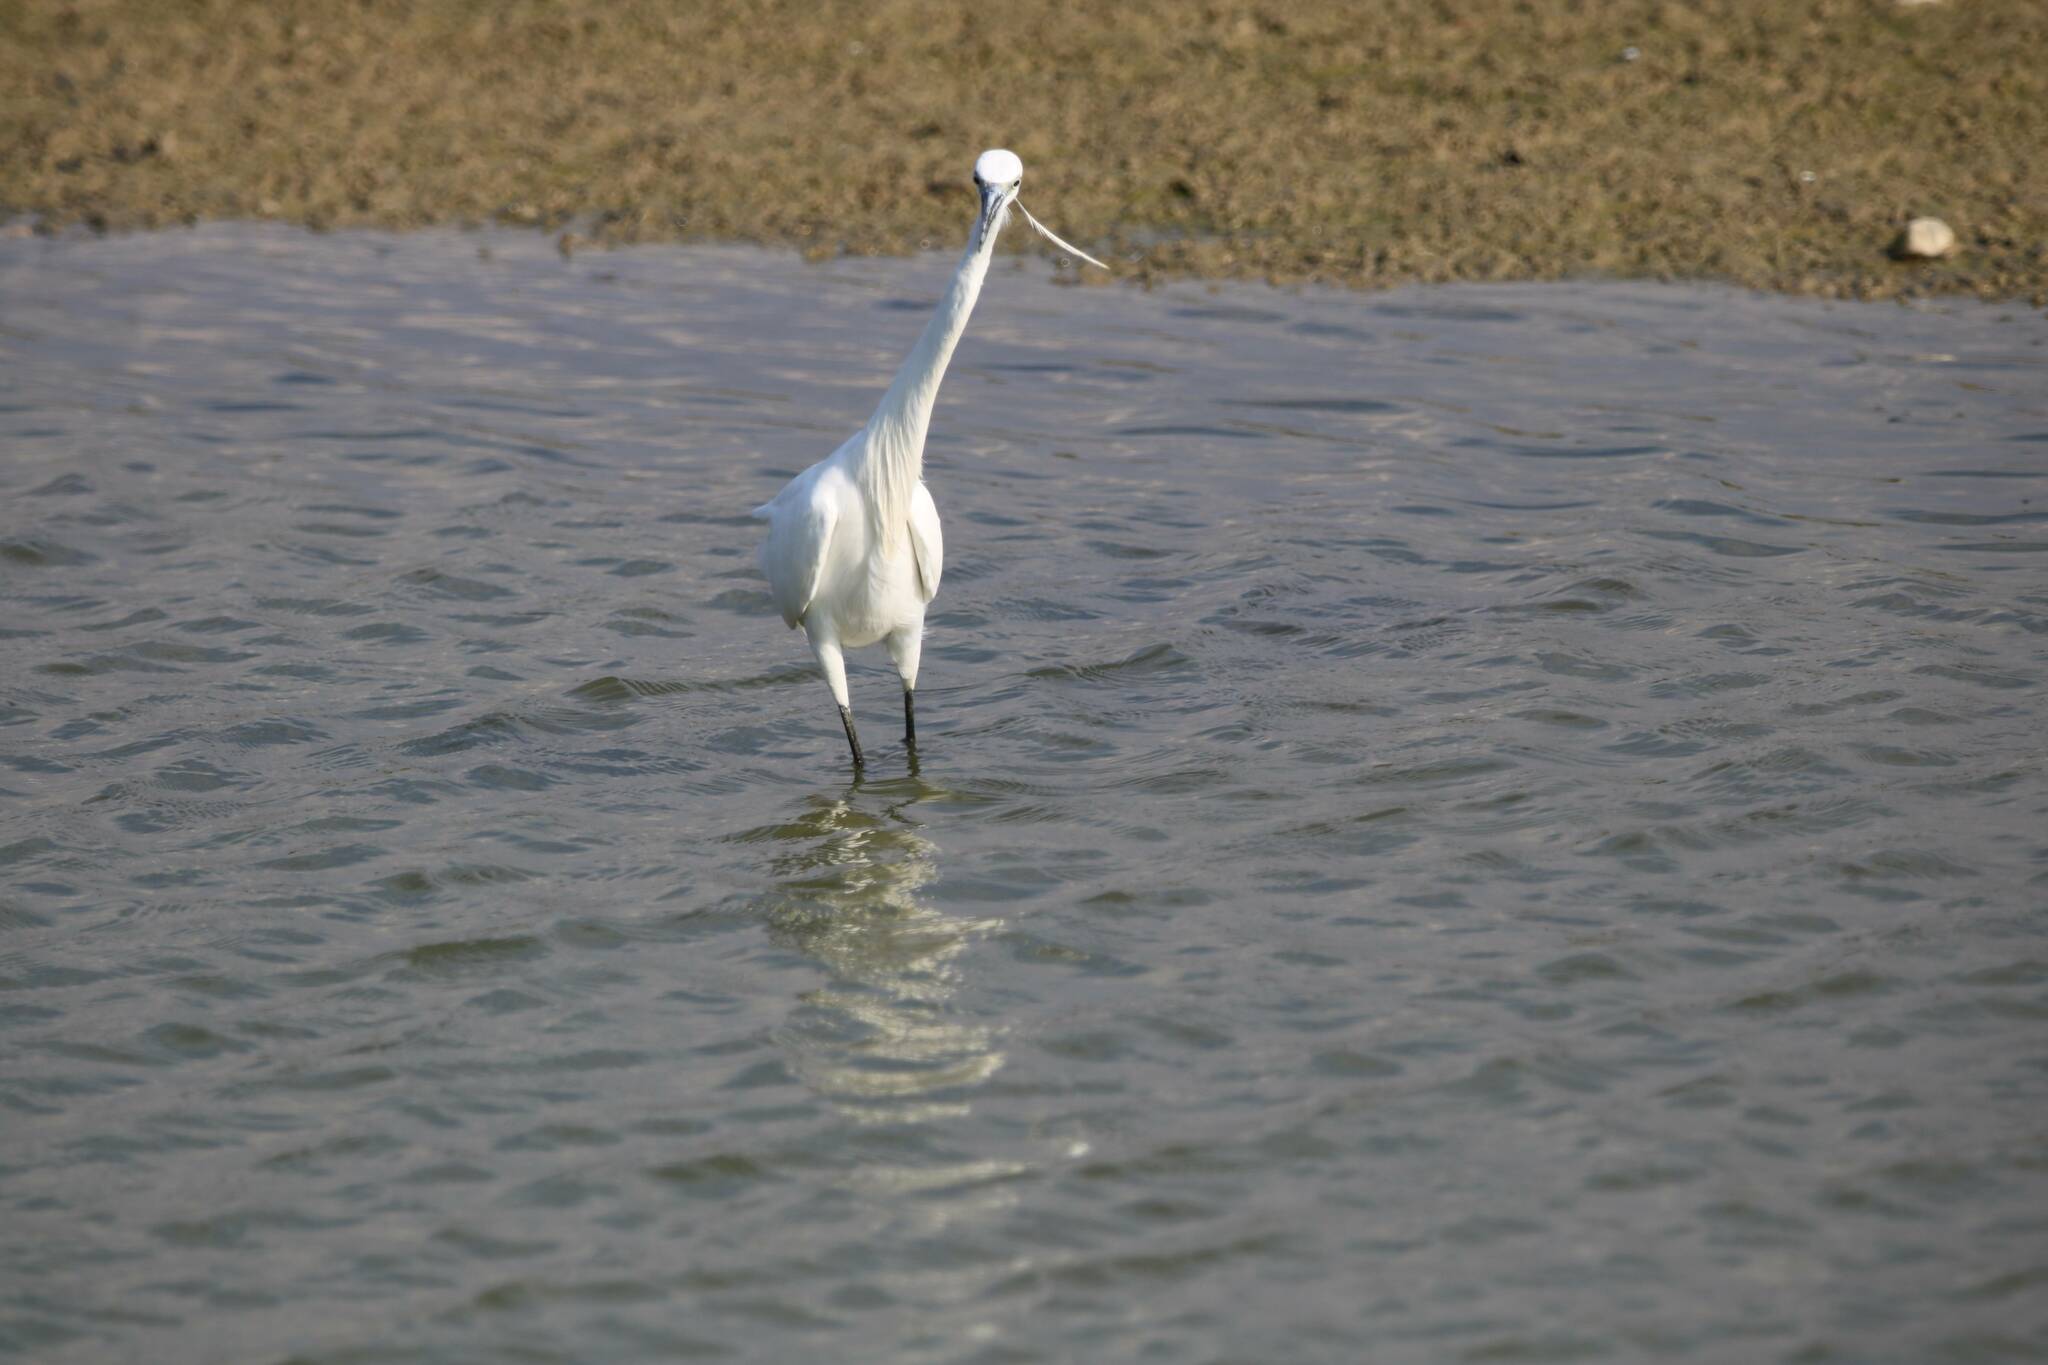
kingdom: Animalia
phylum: Chordata
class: Aves
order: Pelecaniformes
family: Ardeidae
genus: Egretta
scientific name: Egretta garzetta
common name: Little egret
